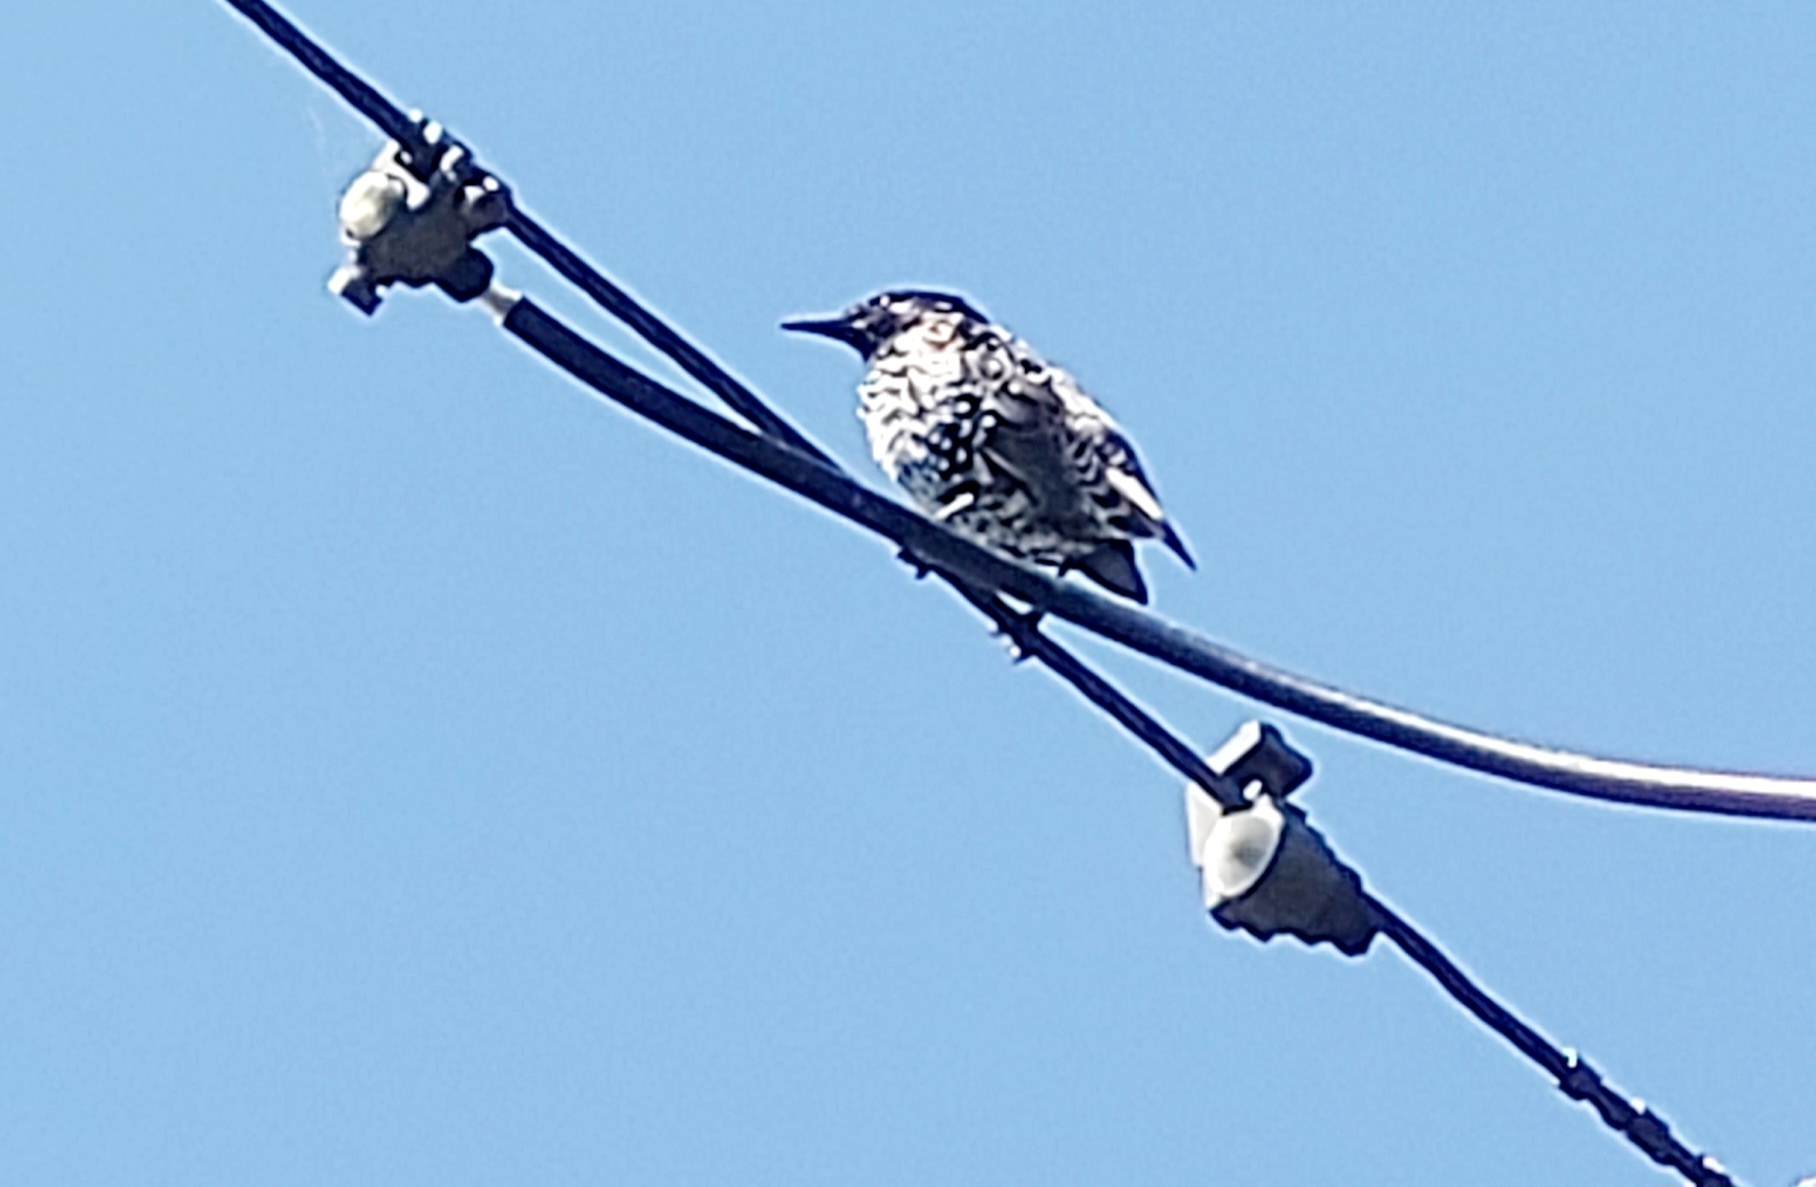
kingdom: Animalia
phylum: Chordata
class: Aves
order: Passeriformes
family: Sturnidae
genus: Sturnus
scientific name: Sturnus vulgaris
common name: Common starling
